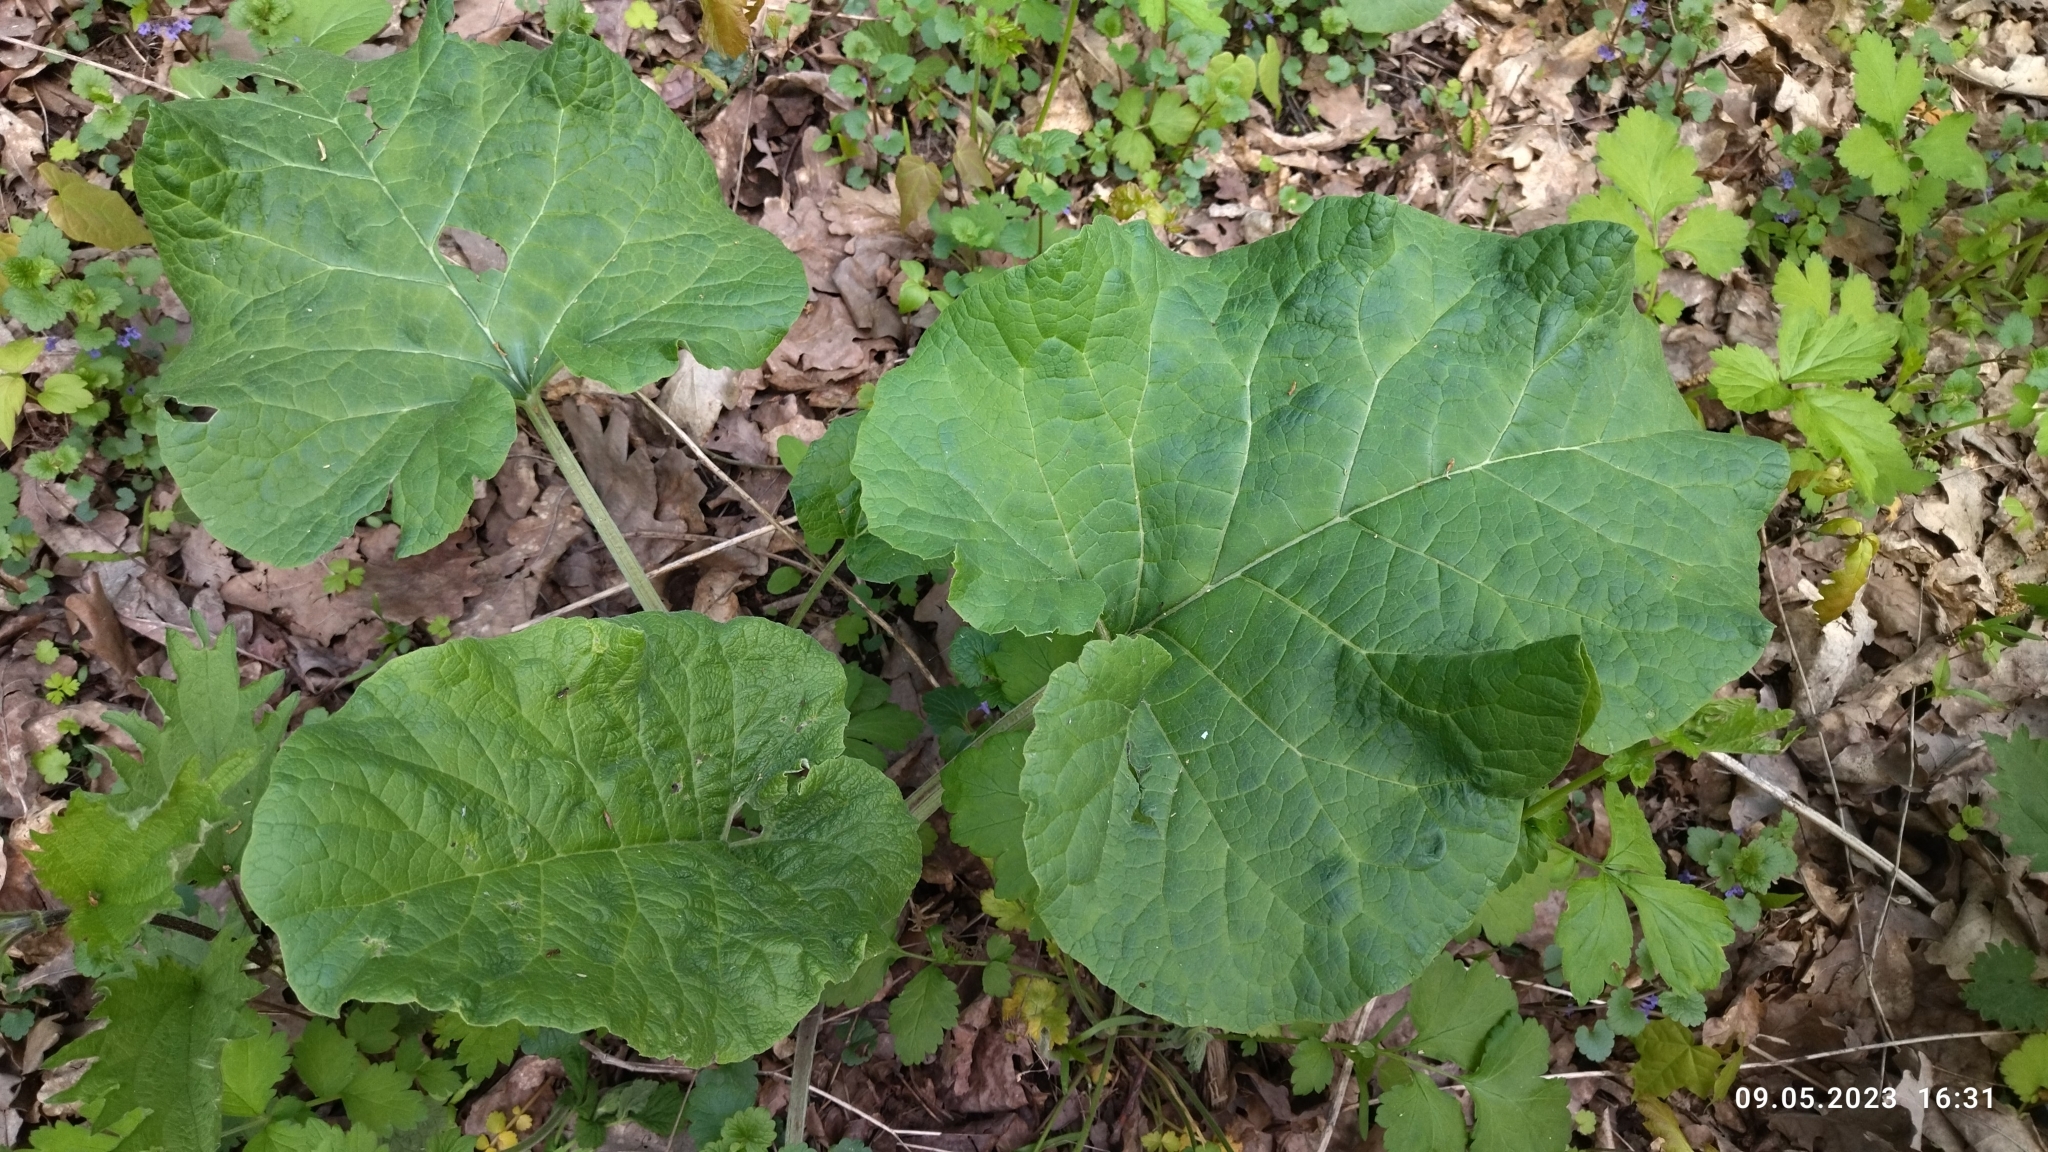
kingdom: Plantae
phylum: Tracheophyta
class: Magnoliopsida
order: Asterales
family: Asteraceae
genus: Arctium
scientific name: Arctium
